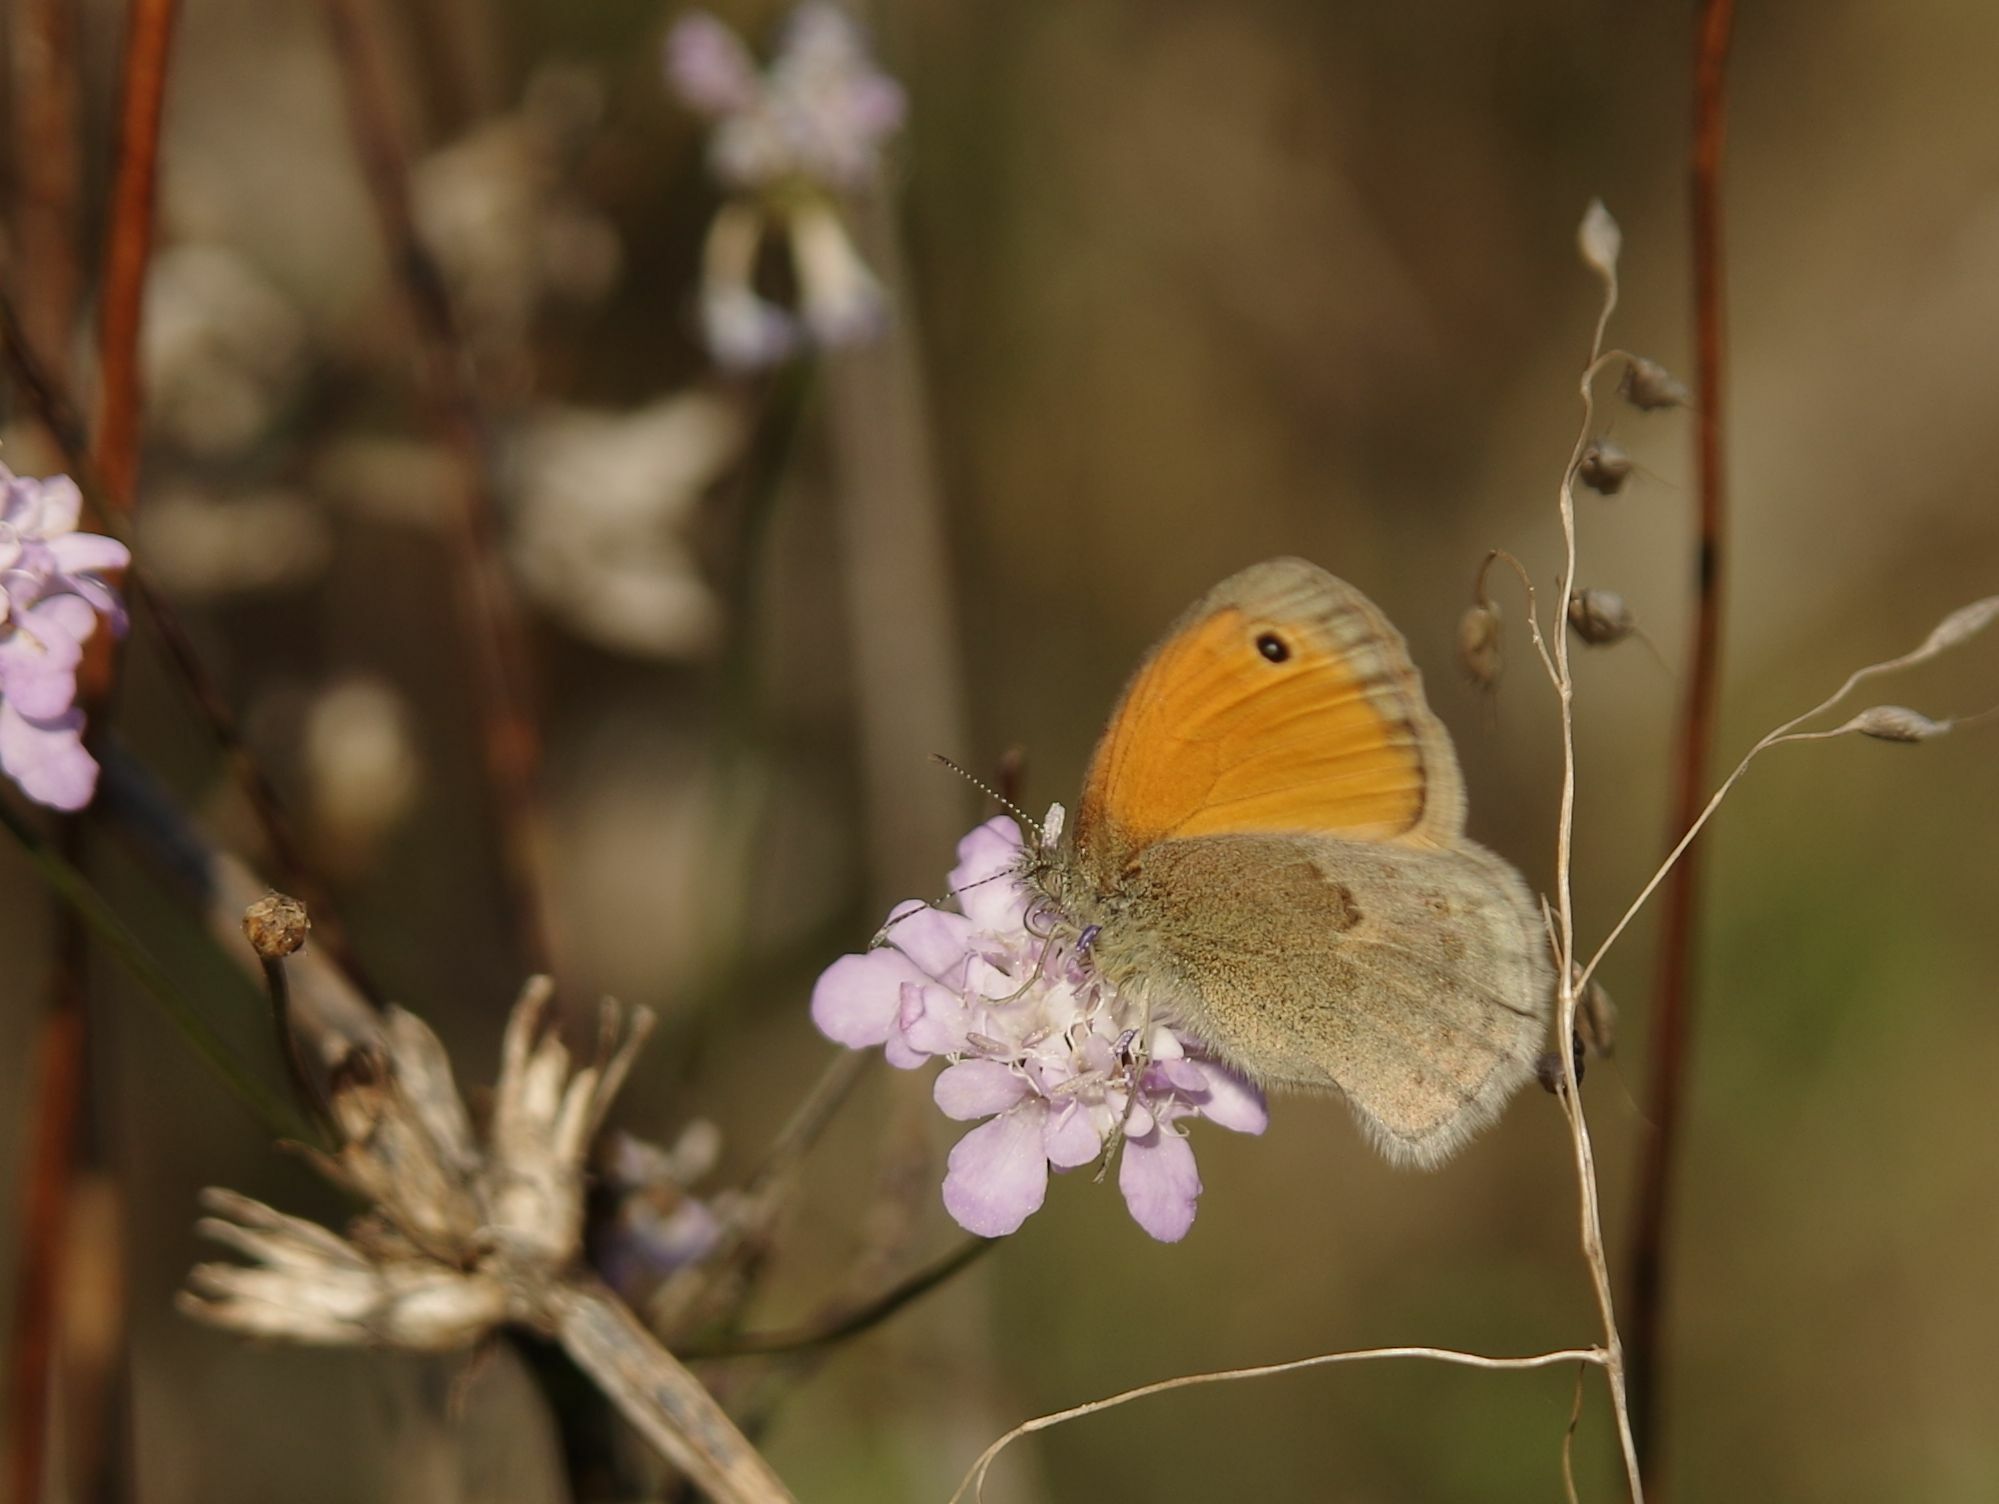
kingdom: Animalia
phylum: Arthropoda
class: Insecta
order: Lepidoptera
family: Nymphalidae
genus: Coenonympha
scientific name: Coenonympha pamphilus
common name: Small heath
